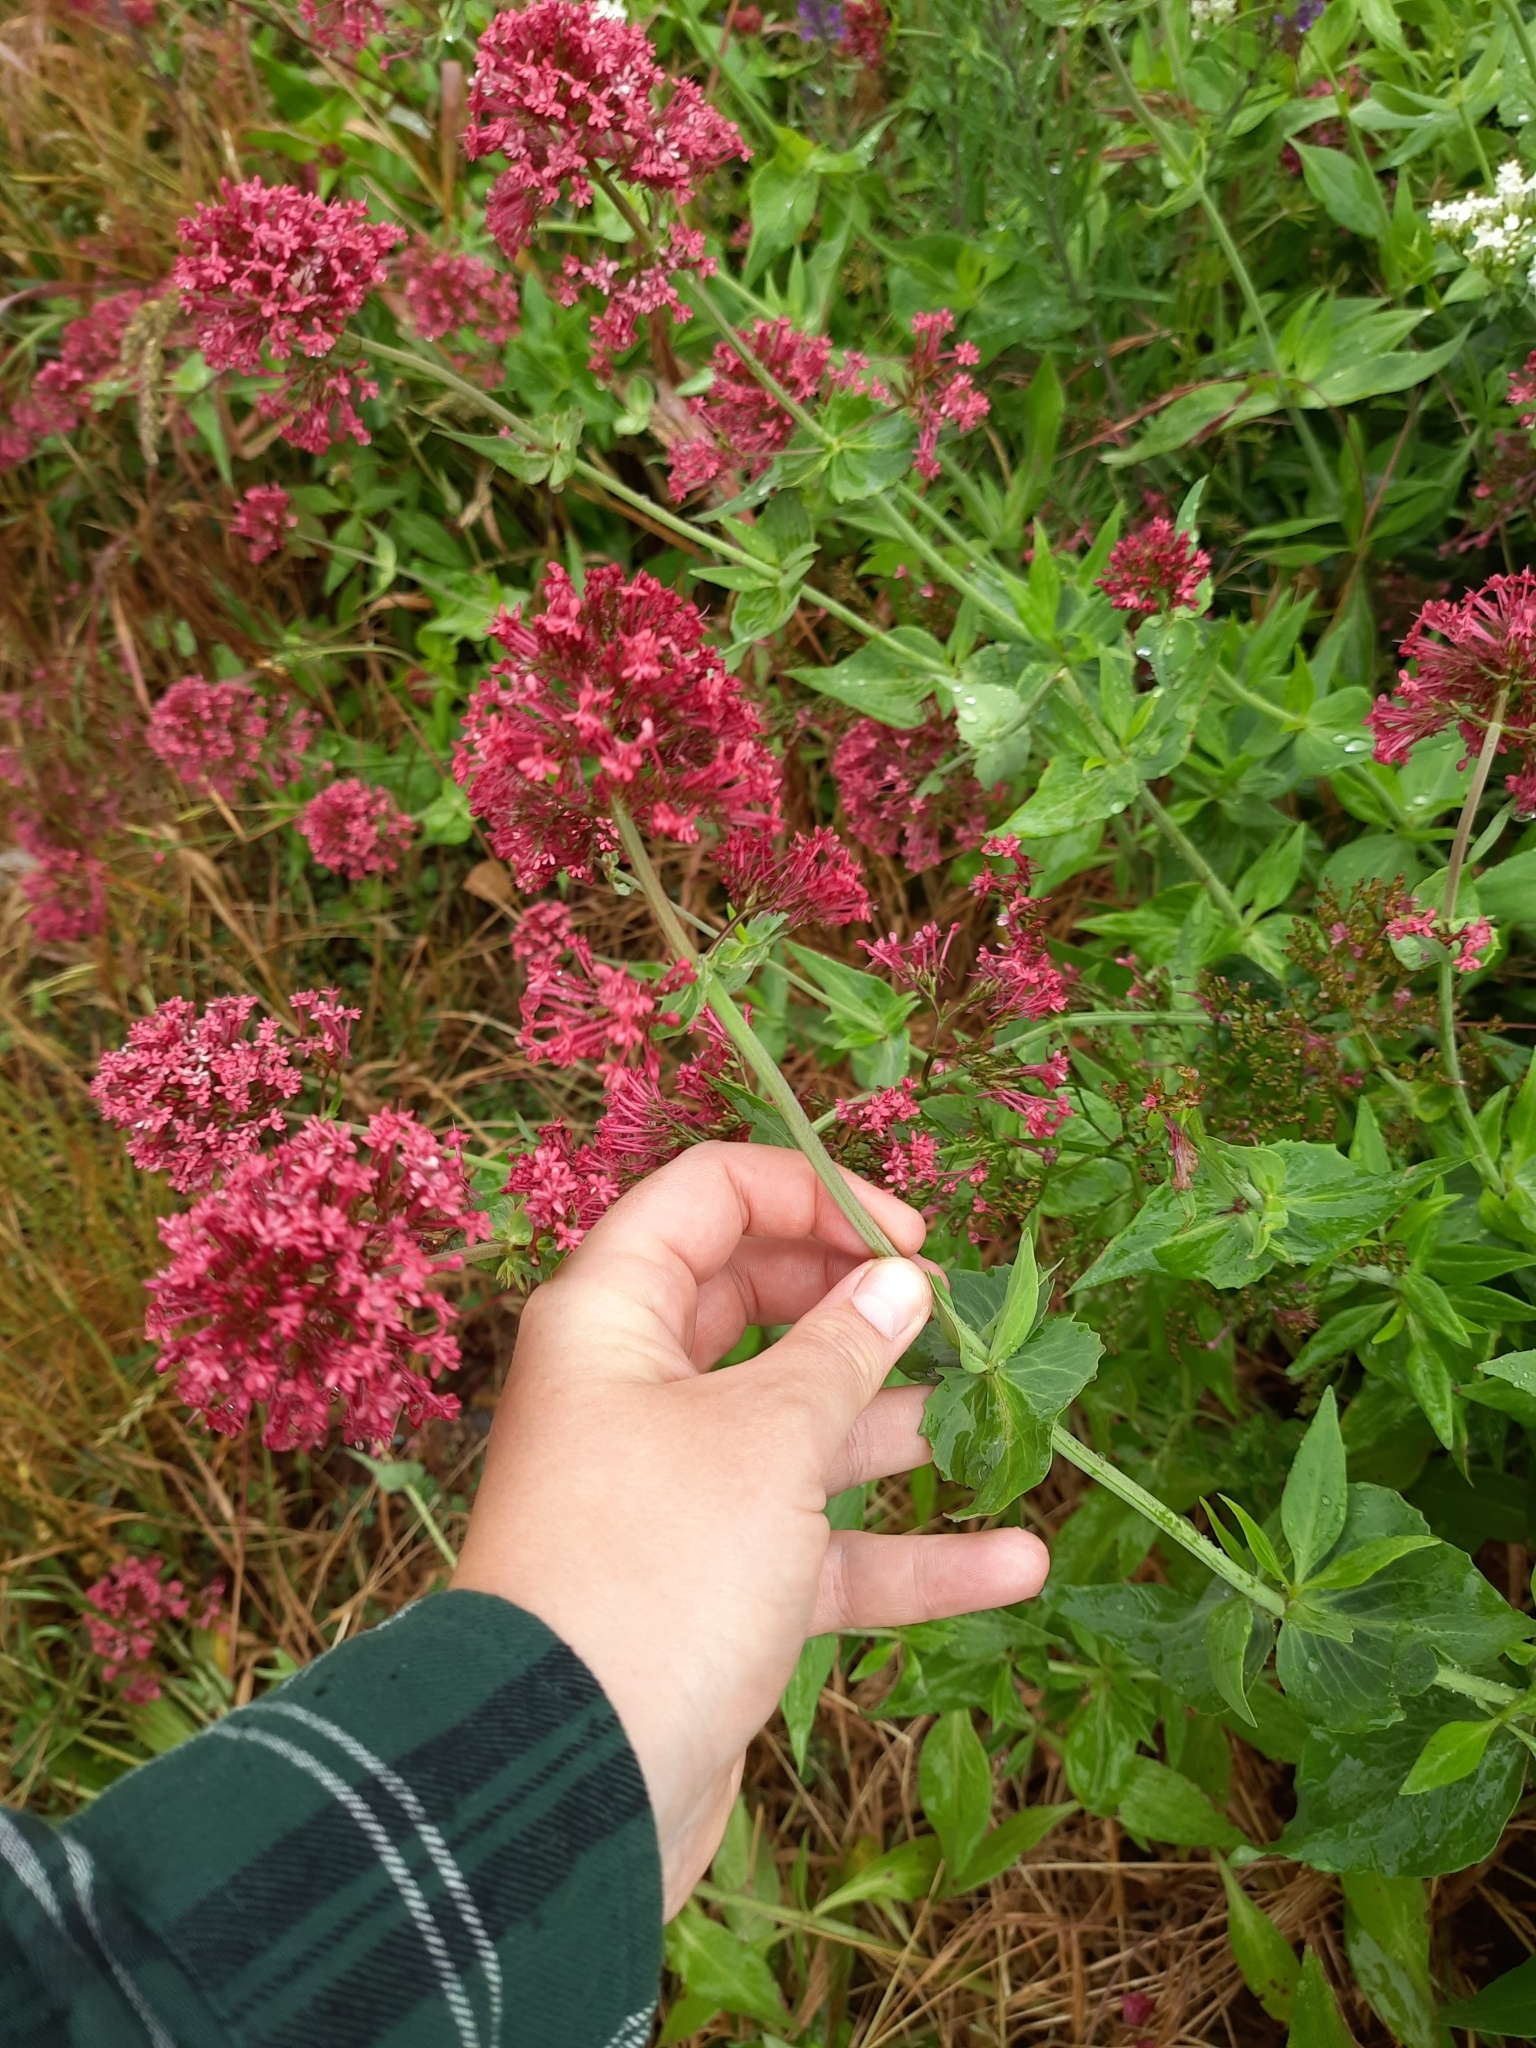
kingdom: Plantae
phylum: Tracheophyta
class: Magnoliopsida
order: Dipsacales
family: Caprifoliaceae
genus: Centranthus
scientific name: Centranthus ruber
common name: Red valerian
